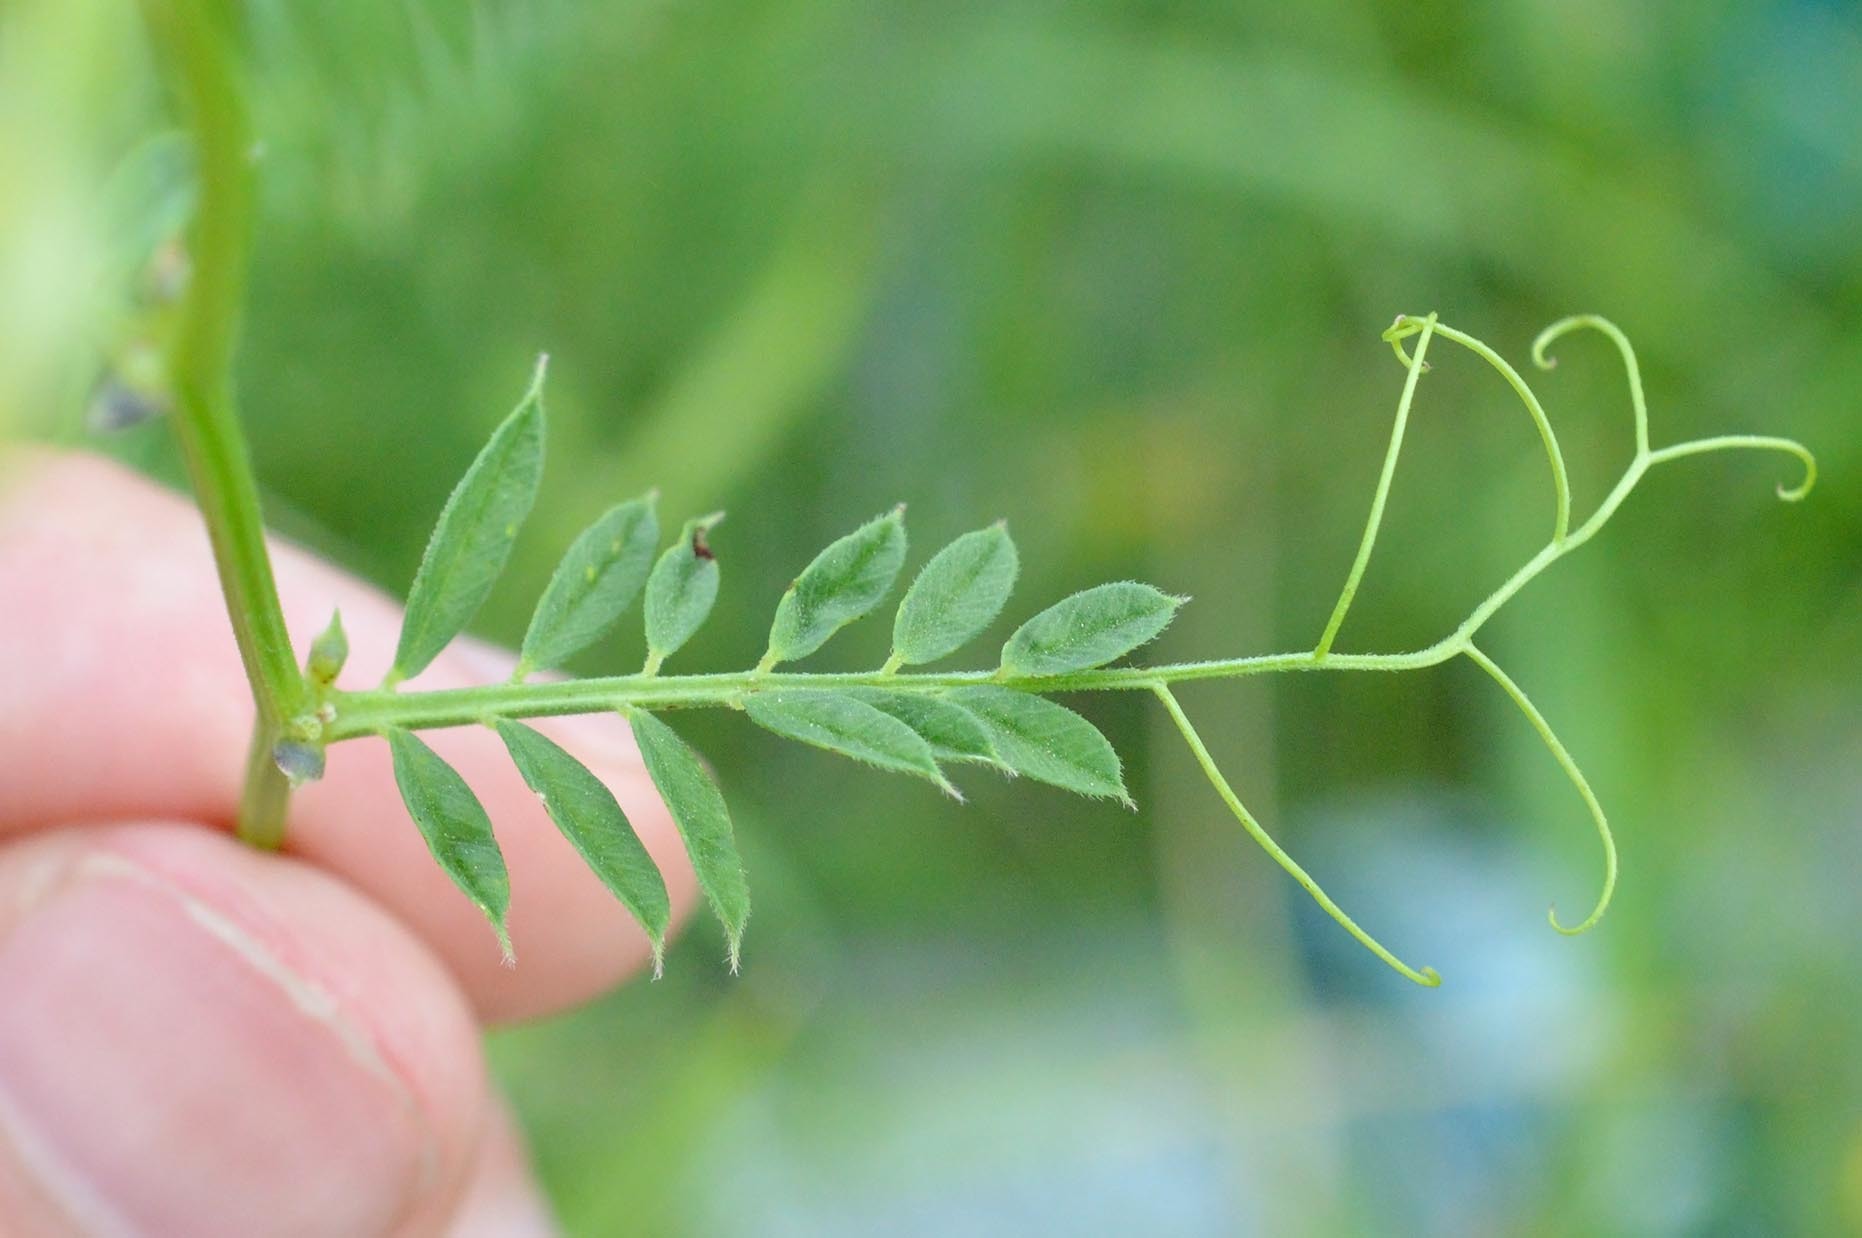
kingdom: Plantae
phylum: Tracheophyta
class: Magnoliopsida
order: Fabales
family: Fabaceae
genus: Vicia
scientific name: Vicia grandiflora
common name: Large yellow vetch
